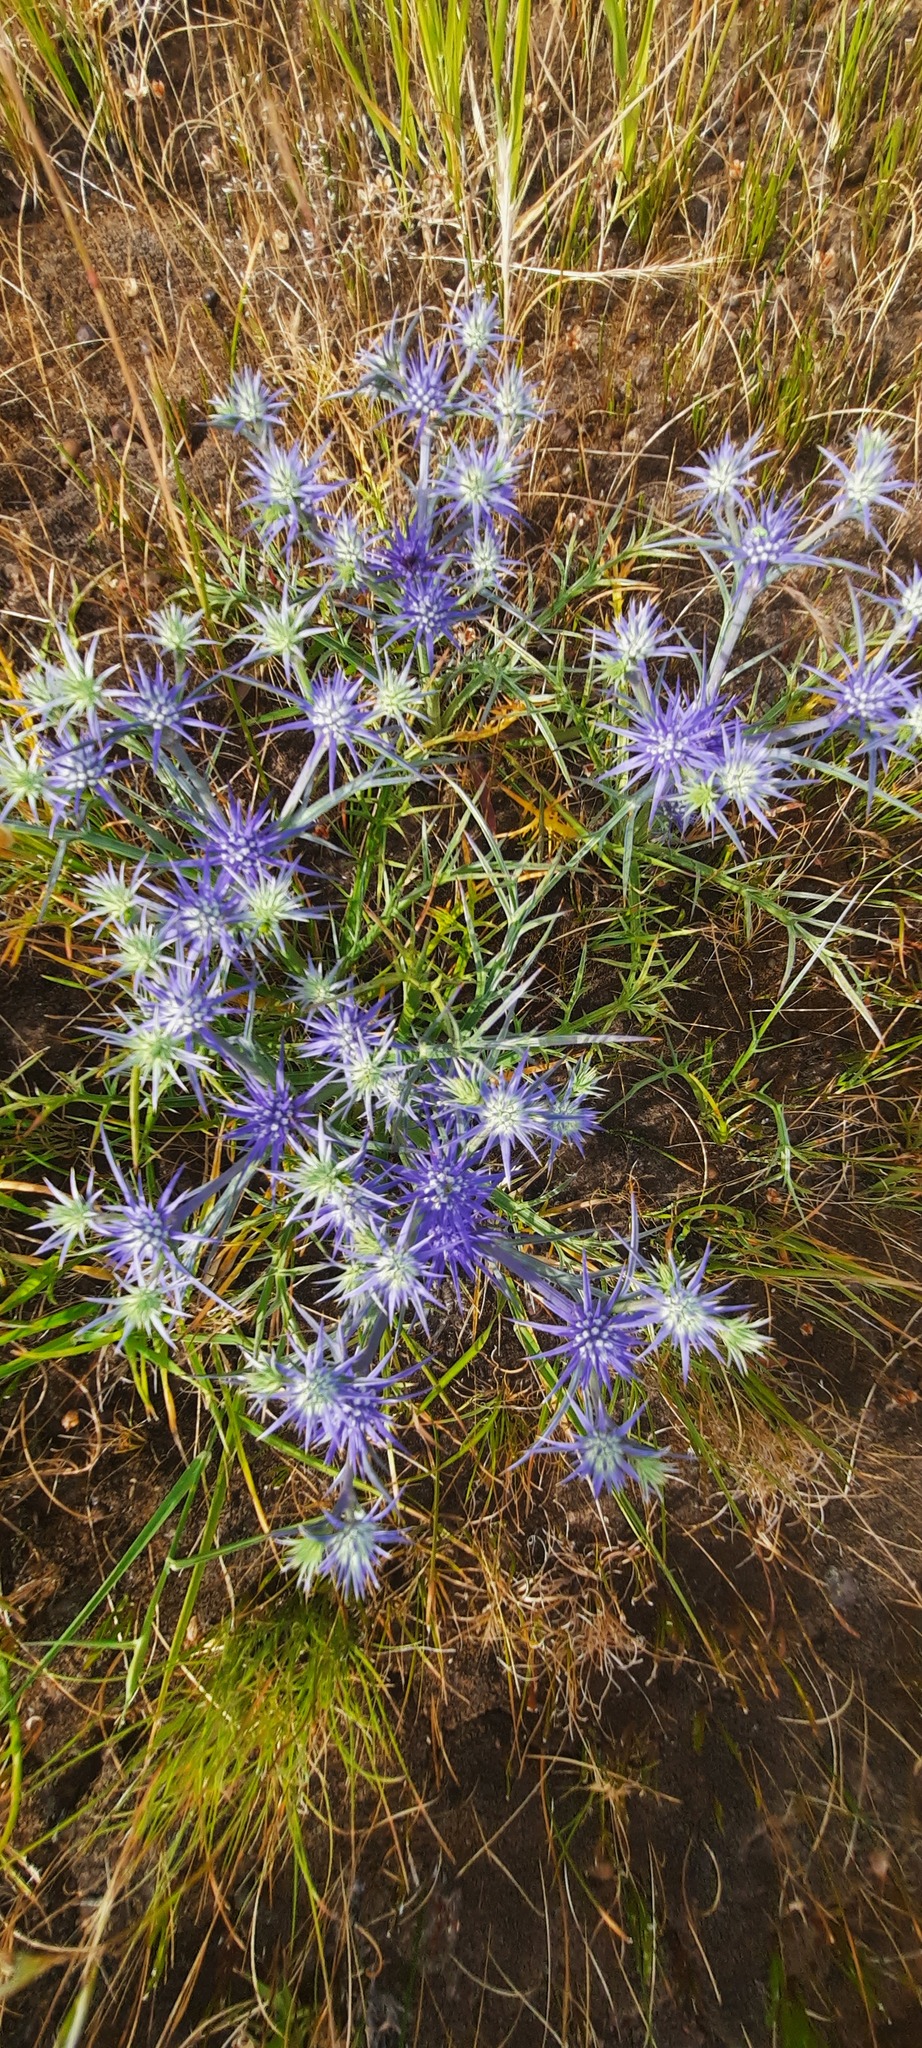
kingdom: Plantae
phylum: Tracheophyta
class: Magnoliopsida
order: Apiales
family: Apiaceae
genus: Eryngium
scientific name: Eryngium ovinum
